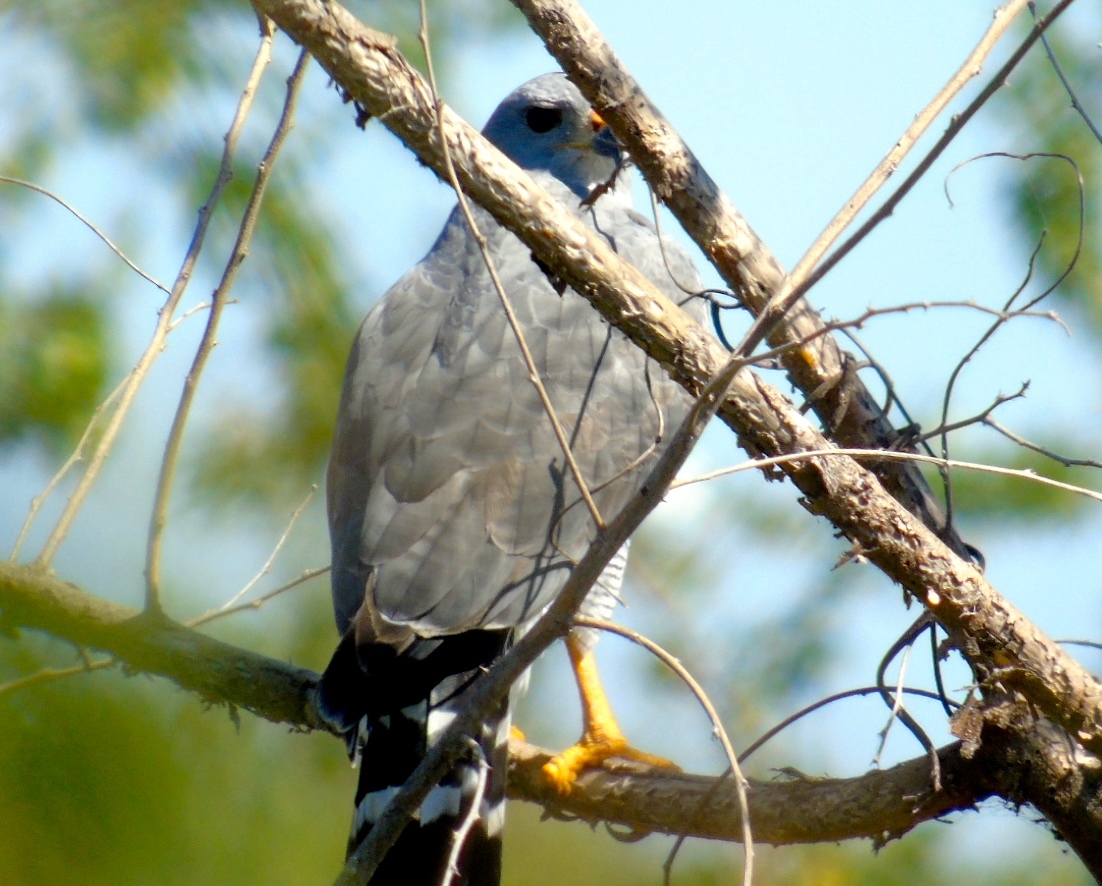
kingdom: Animalia
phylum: Chordata
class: Aves
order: Accipitriformes
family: Accipitridae
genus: Buteo
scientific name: Buteo nitidus
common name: Grey-lined hawk
